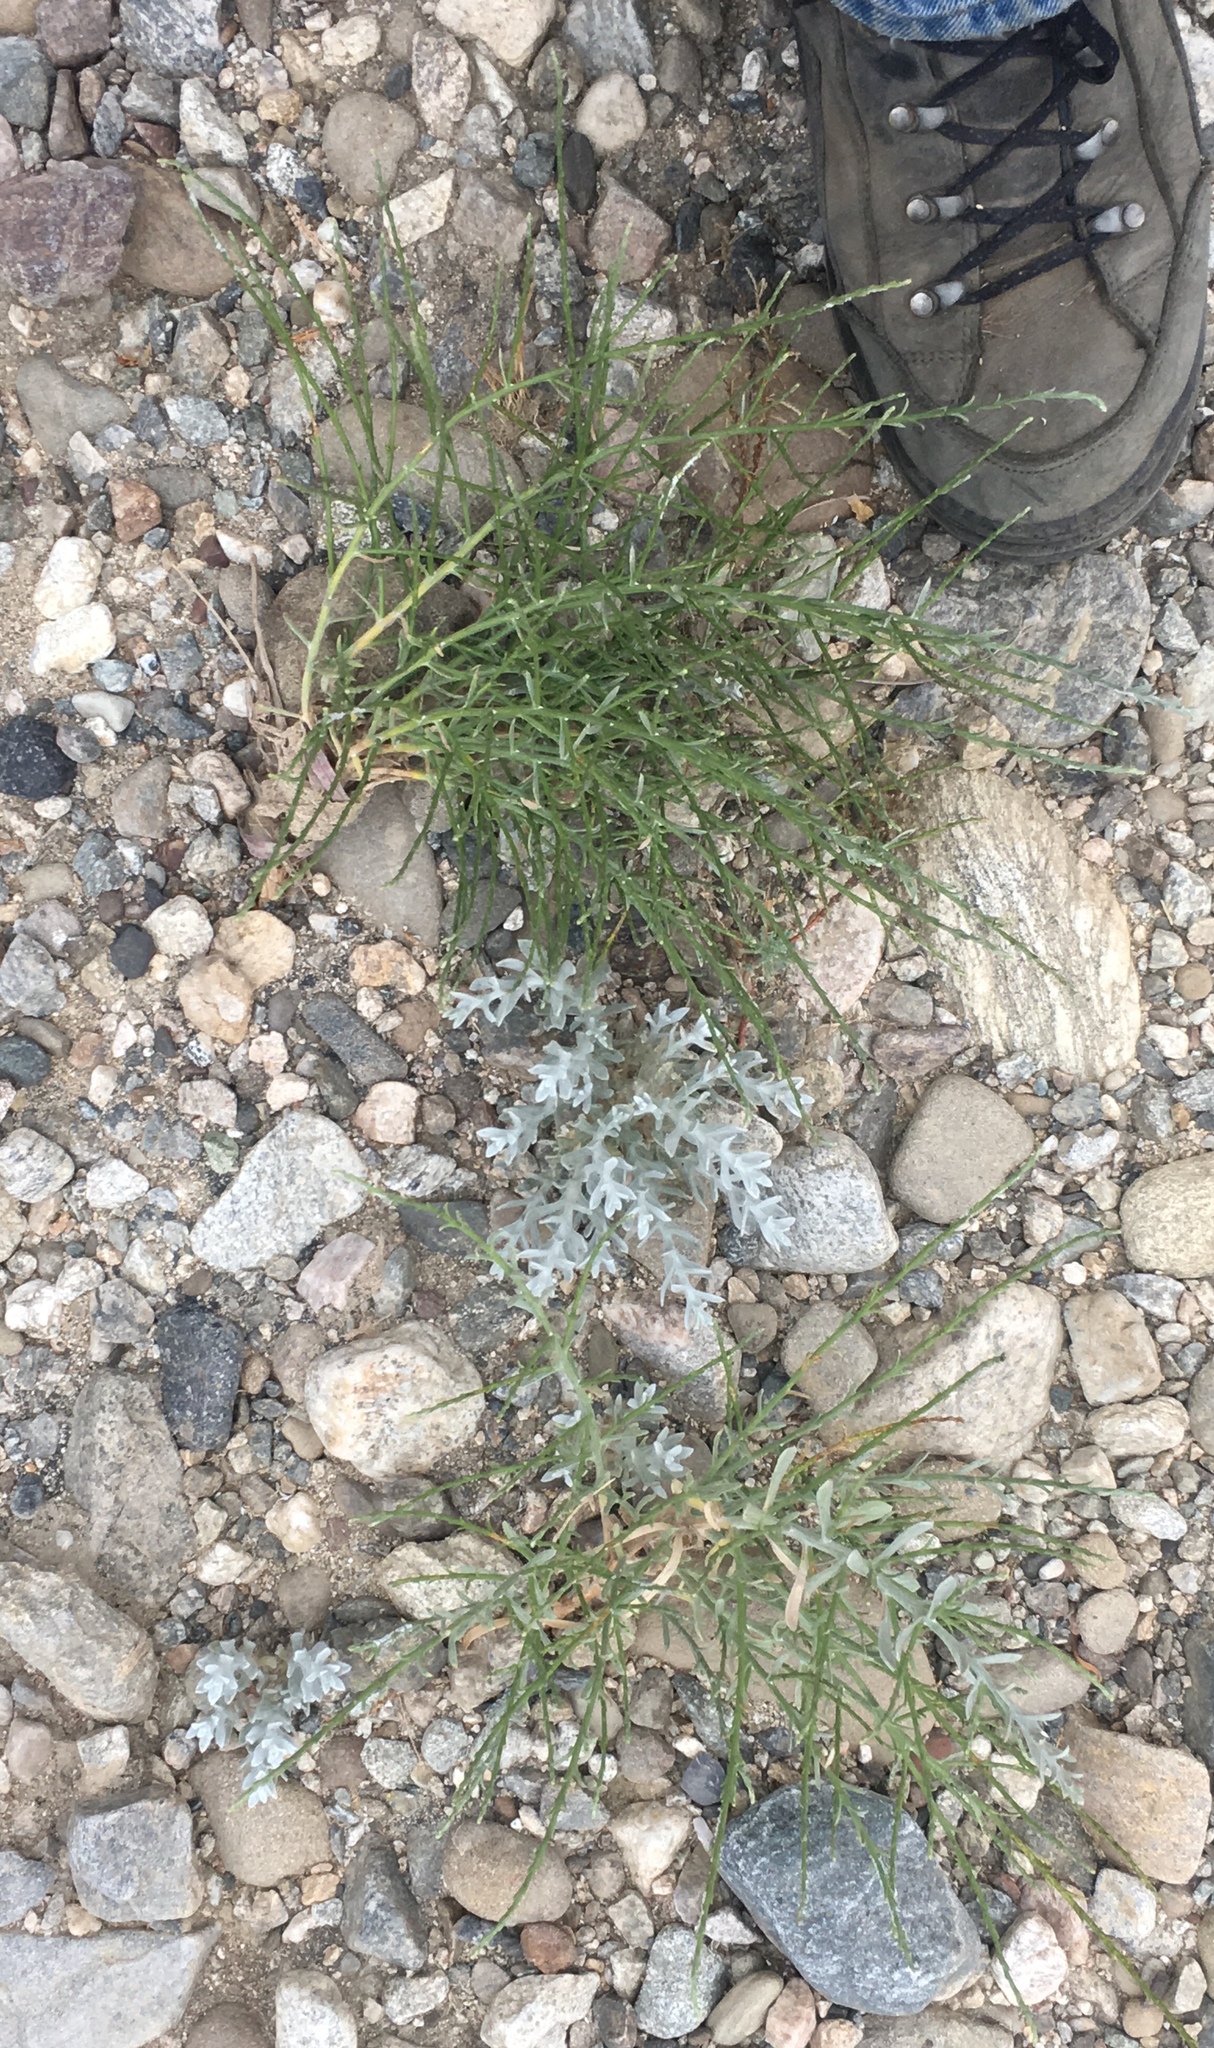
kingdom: Plantae
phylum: Tracheophyta
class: Magnoliopsida
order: Asterales
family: Asteraceae
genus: Lepidospartum
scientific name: Lepidospartum squamatum
